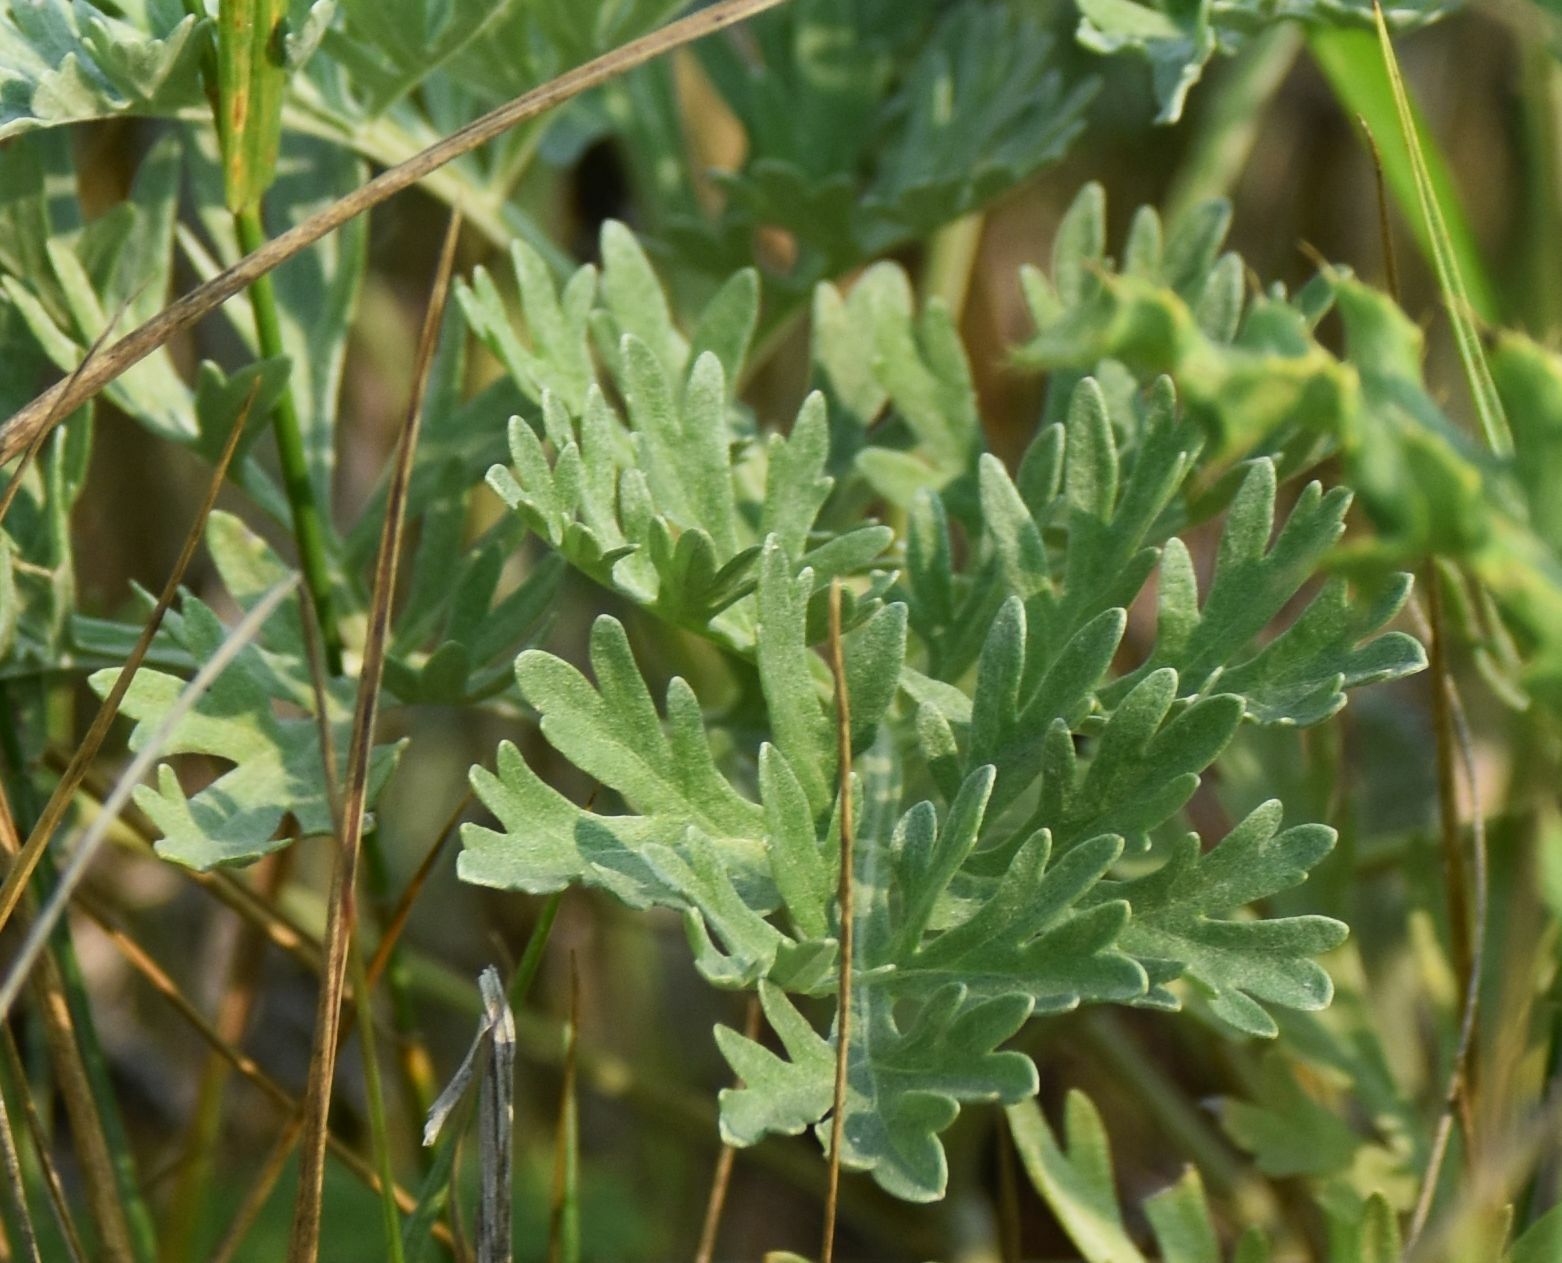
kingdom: Plantae
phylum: Tracheophyta
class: Magnoliopsida
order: Asterales
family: Asteraceae
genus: Artemisia
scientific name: Artemisia absinthium
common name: Wormwood
